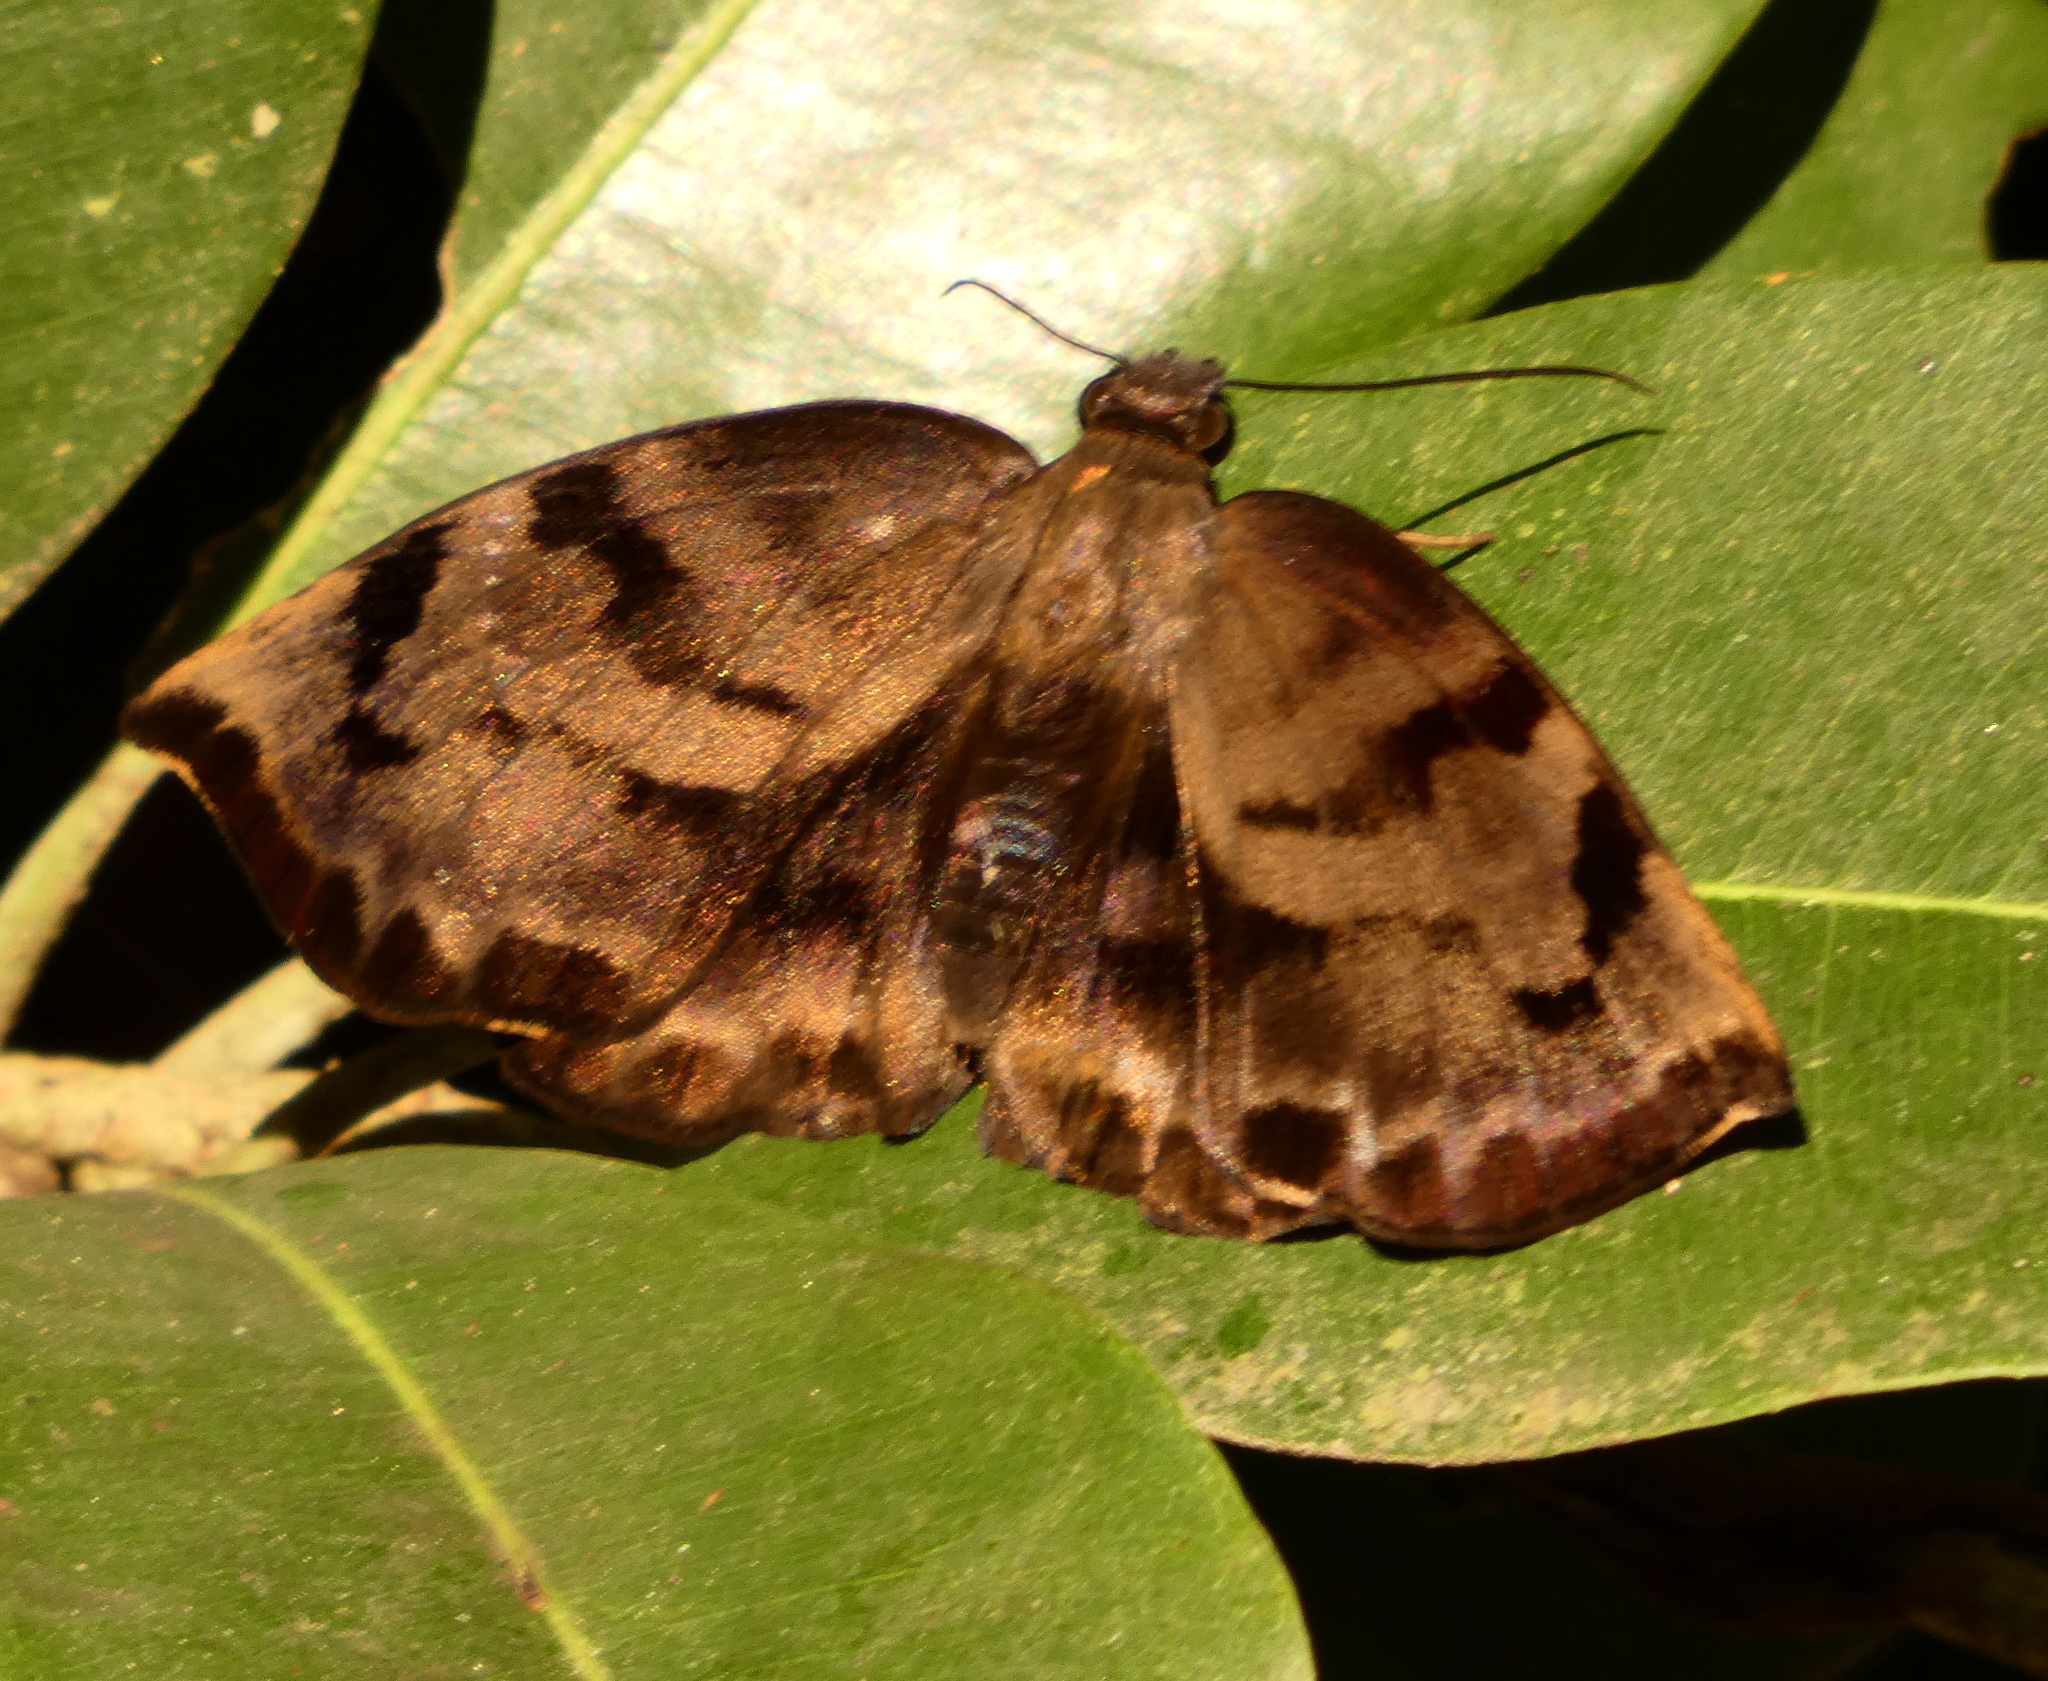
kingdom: Animalia
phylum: Arthropoda
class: Insecta
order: Lepidoptera
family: Hesperiidae
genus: Achlyodes
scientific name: Achlyodes busirus
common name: Giant sicklewing
